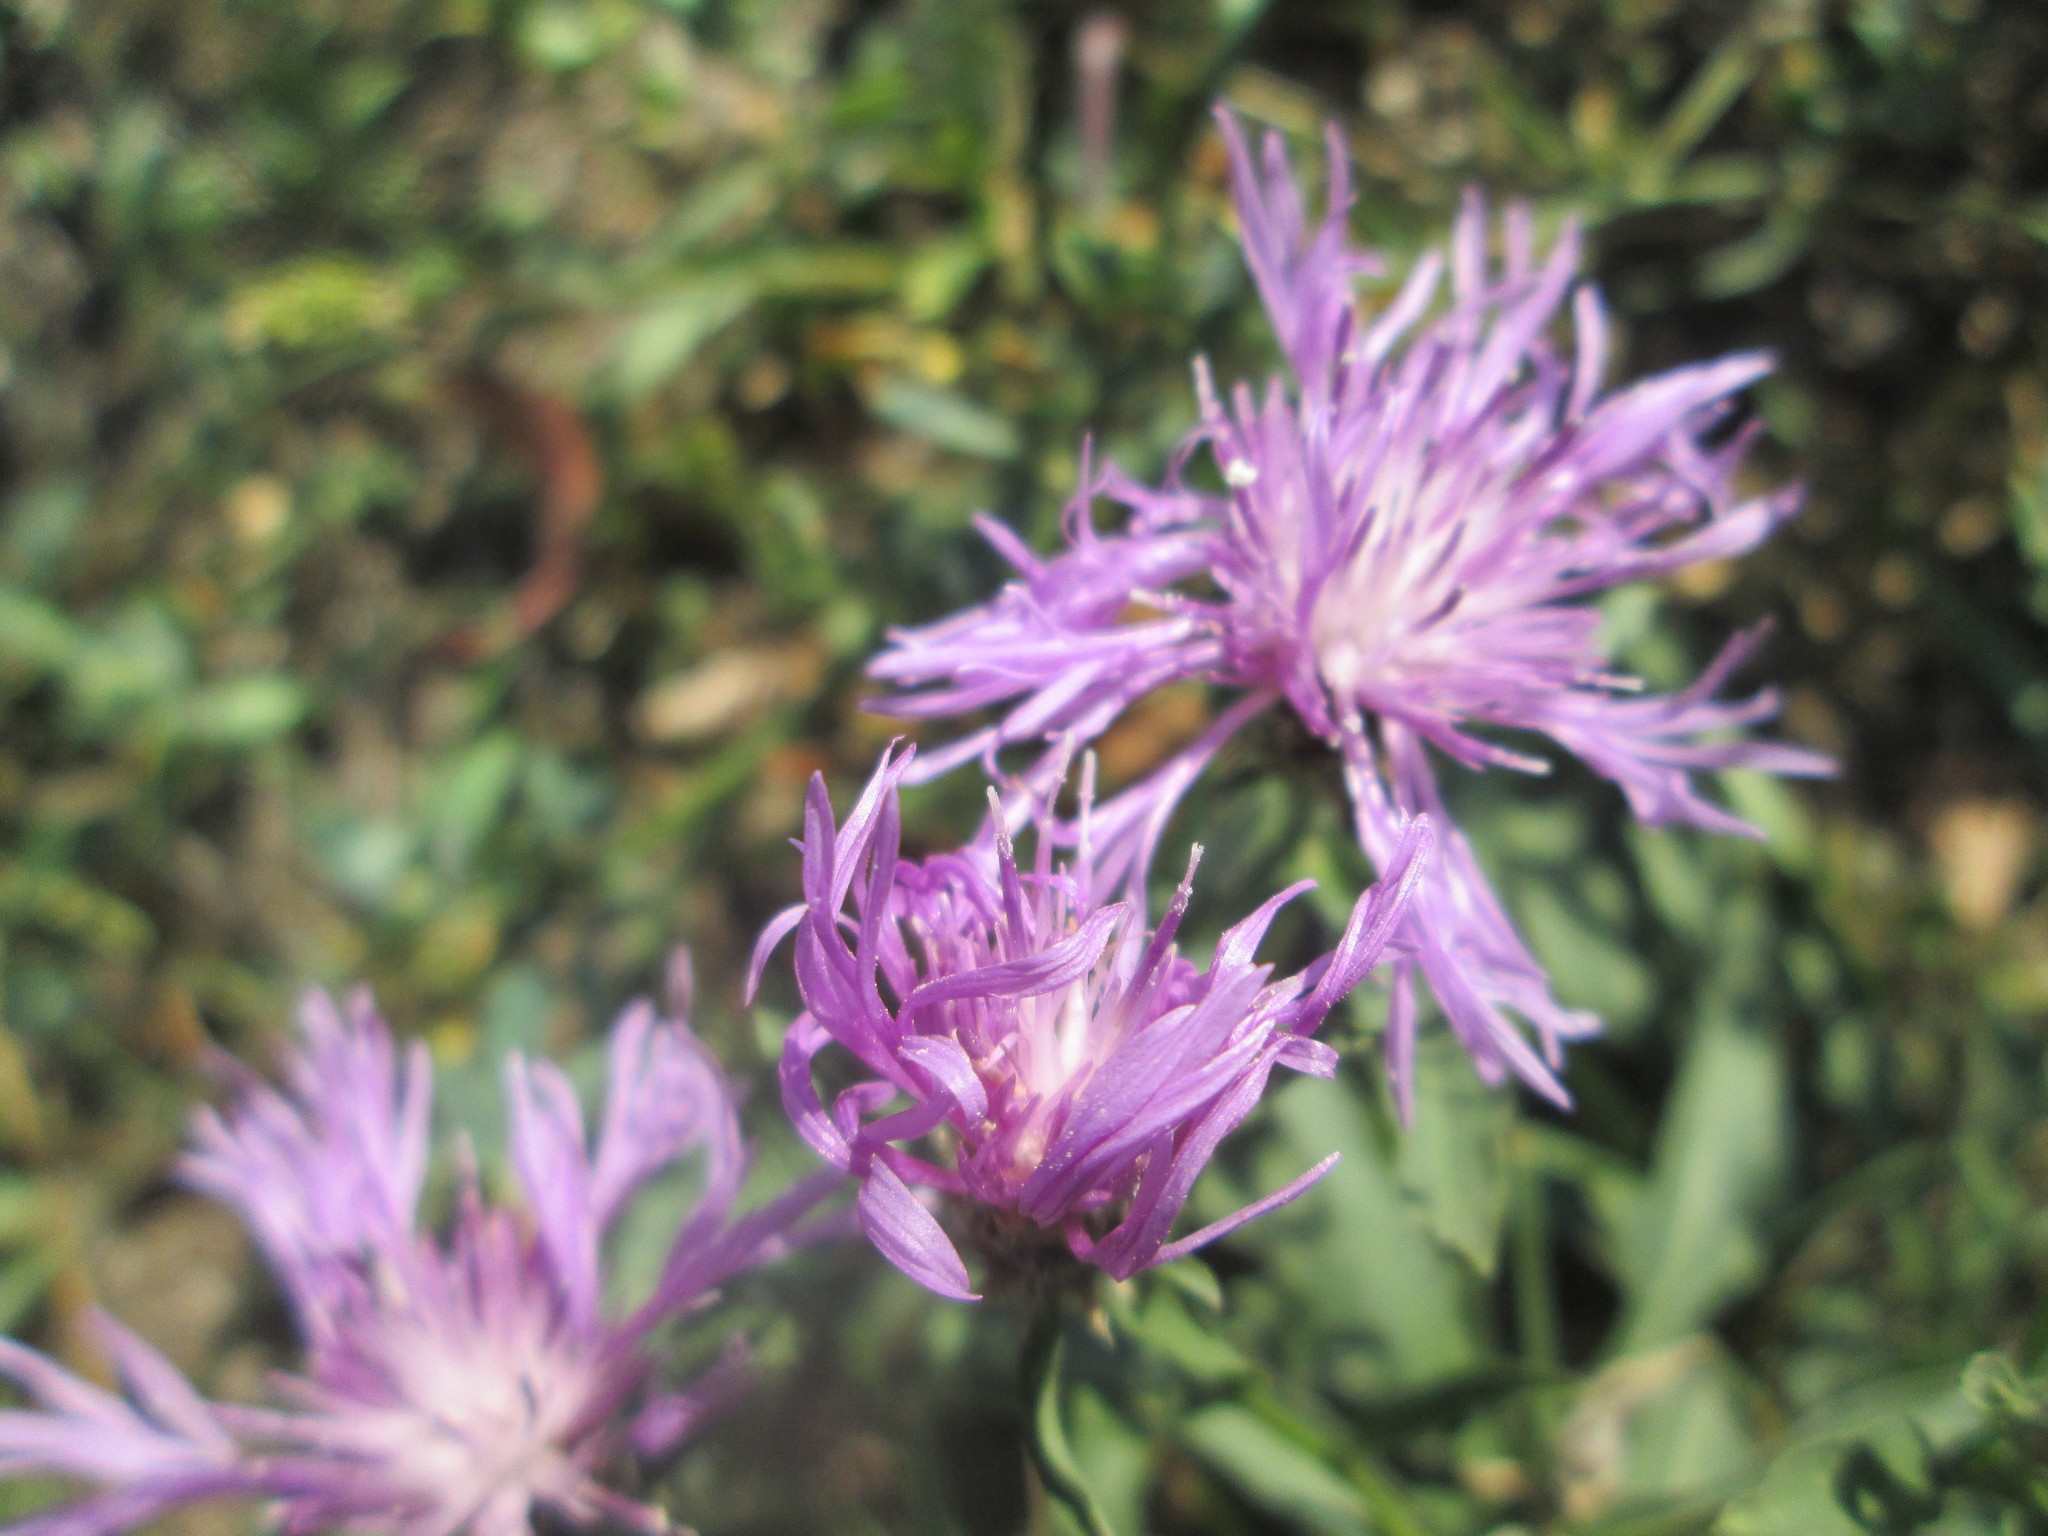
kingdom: Plantae
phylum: Tracheophyta
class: Magnoliopsida
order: Asterales
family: Asteraceae
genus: Centaurea
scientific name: Centaurea jacea
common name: Brown knapweed
